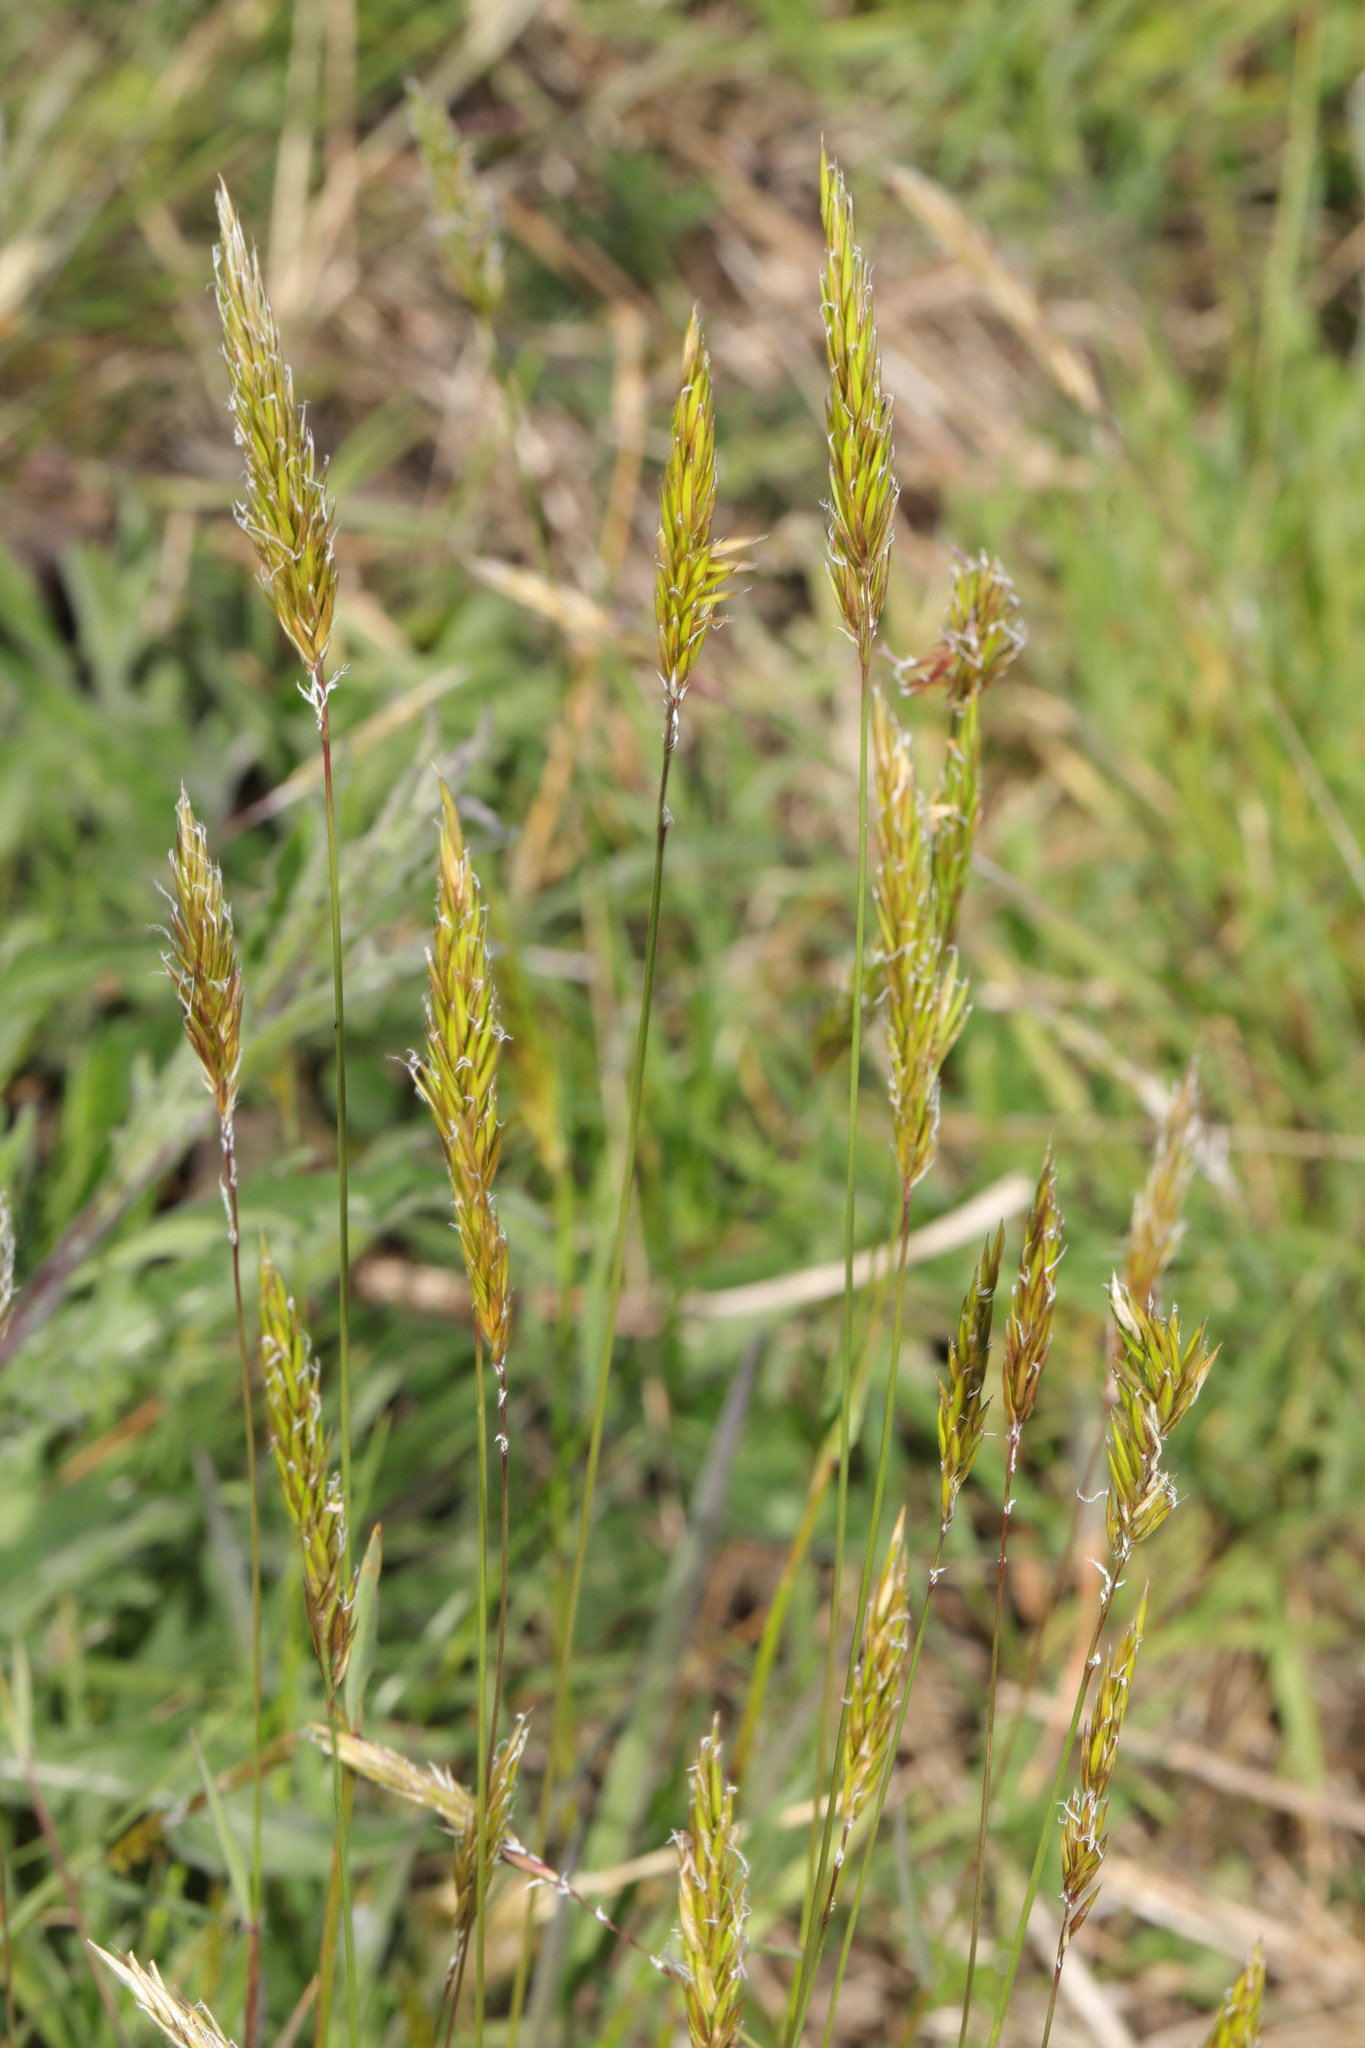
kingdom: Plantae
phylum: Tracheophyta
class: Liliopsida
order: Poales
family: Poaceae
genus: Anthoxanthum
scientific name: Anthoxanthum odoratum
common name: Sweet vernalgrass
